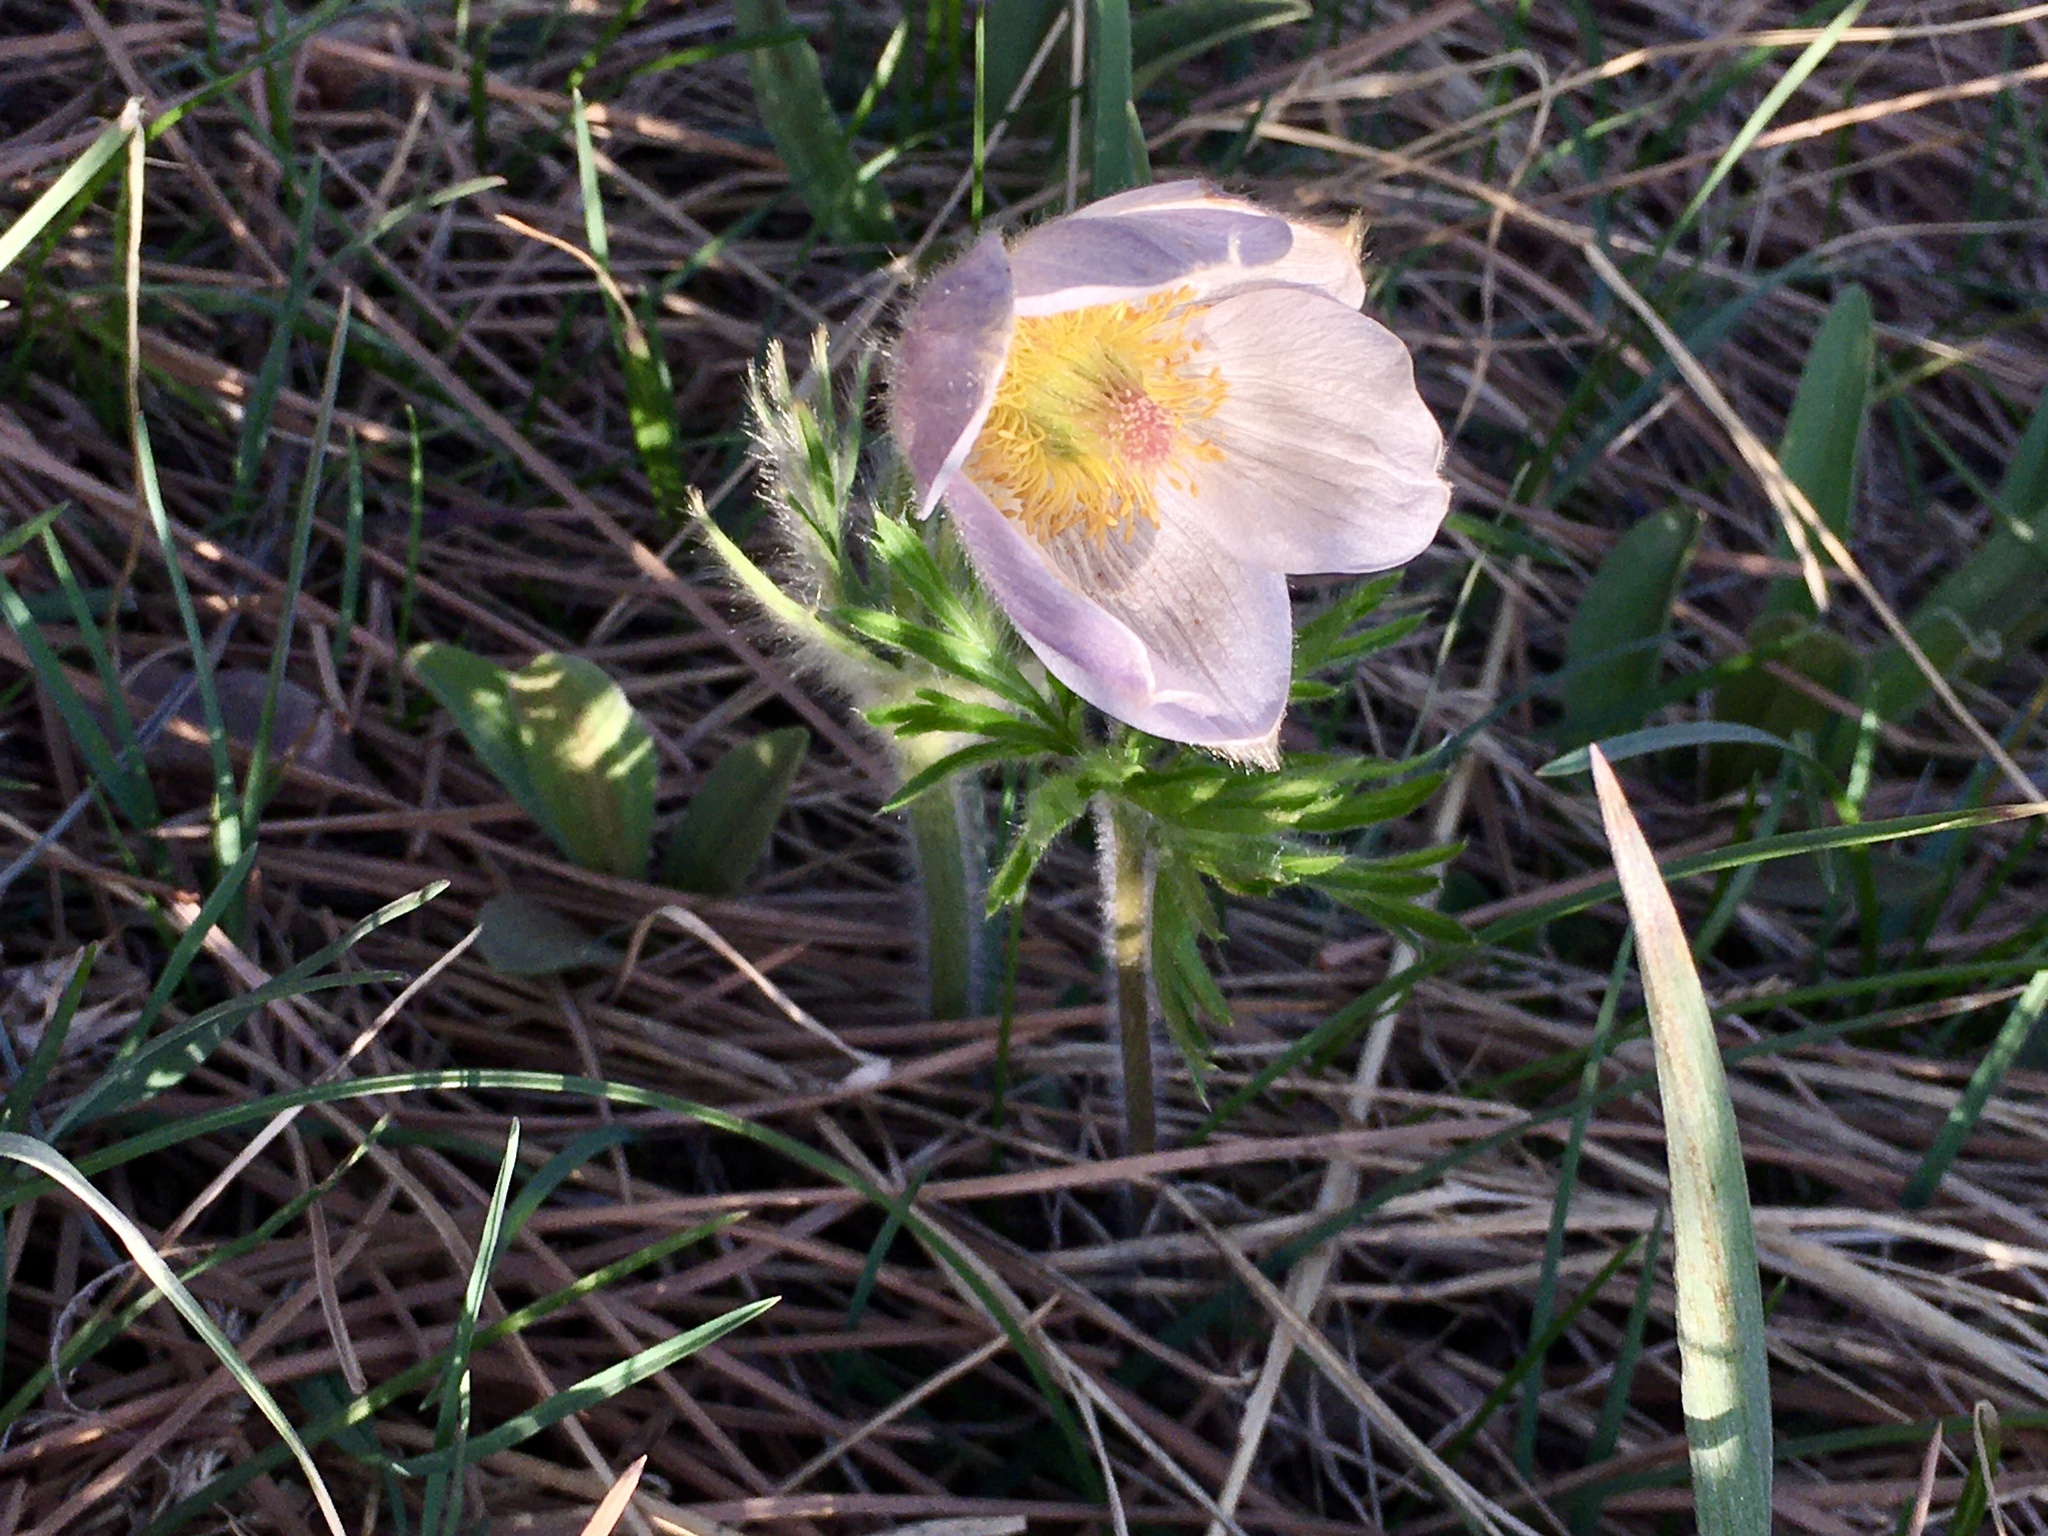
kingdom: Plantae
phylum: Tracheophyta
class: Magnoliopsida
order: Ranunculales
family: Ranunculaceae
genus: Pulsatilla
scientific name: Pulsatilla nuttalliana
